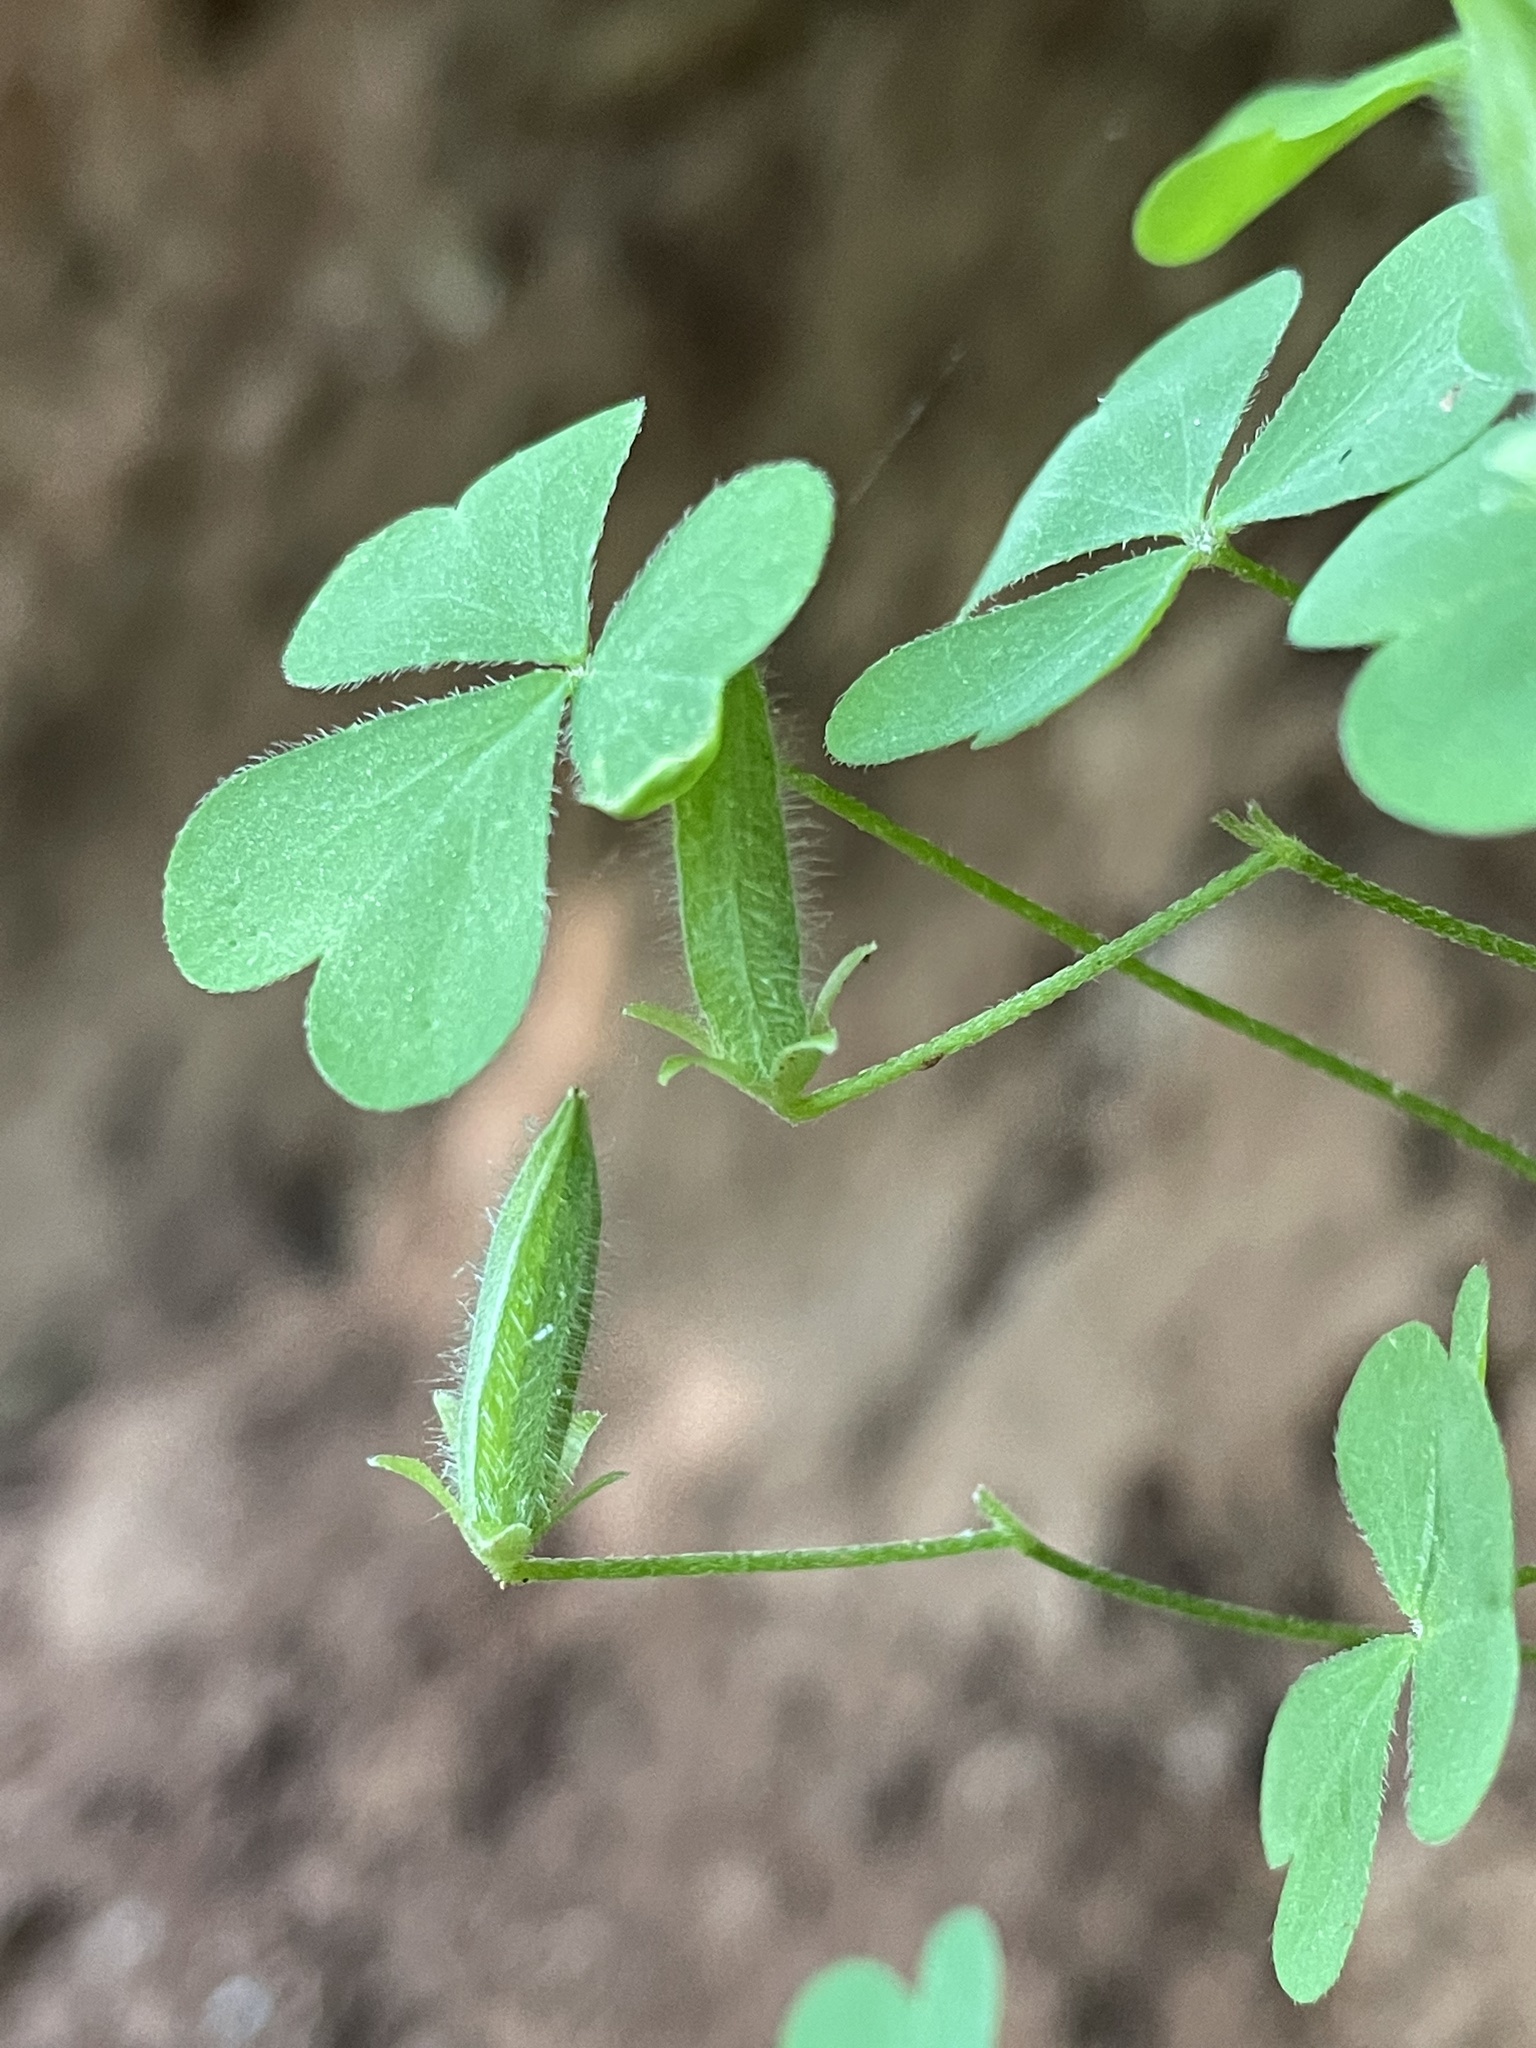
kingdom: Plantae
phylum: Tracheophyta
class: Magnoliopsida
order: Oxalidales
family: Oxalidaceae
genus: Oxalis
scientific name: Oxalis dillenii
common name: Sussex yellow-sorrel
